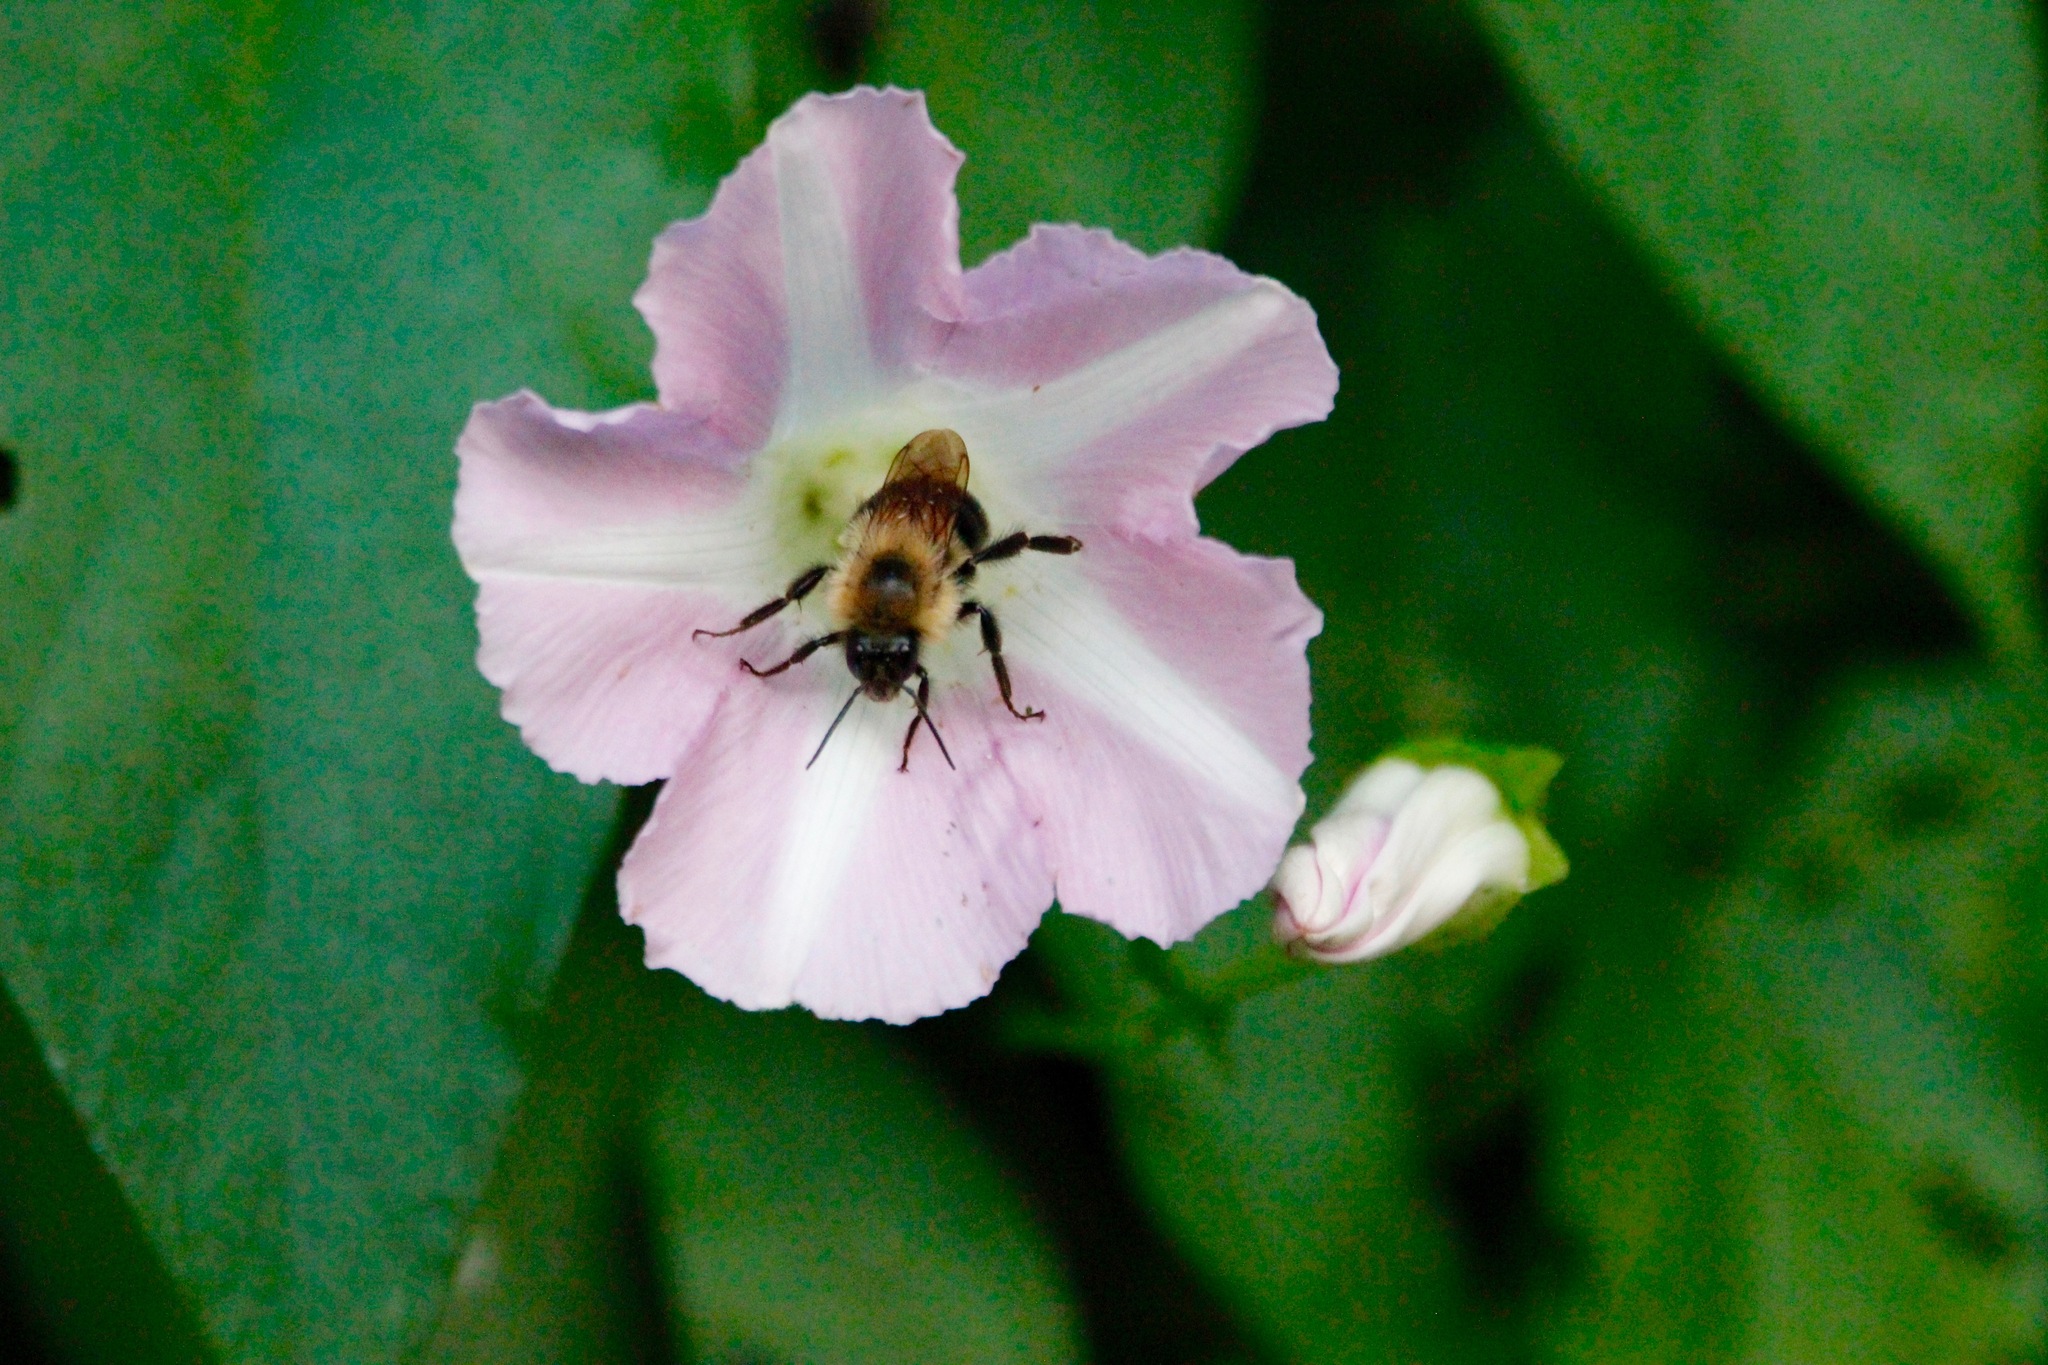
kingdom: Animalia
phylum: Arthropoda
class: Insecta
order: Hymenoptera
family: Apidae
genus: Bombus
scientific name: Bombus bimaculatus
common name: Two-spotted bumble bee
